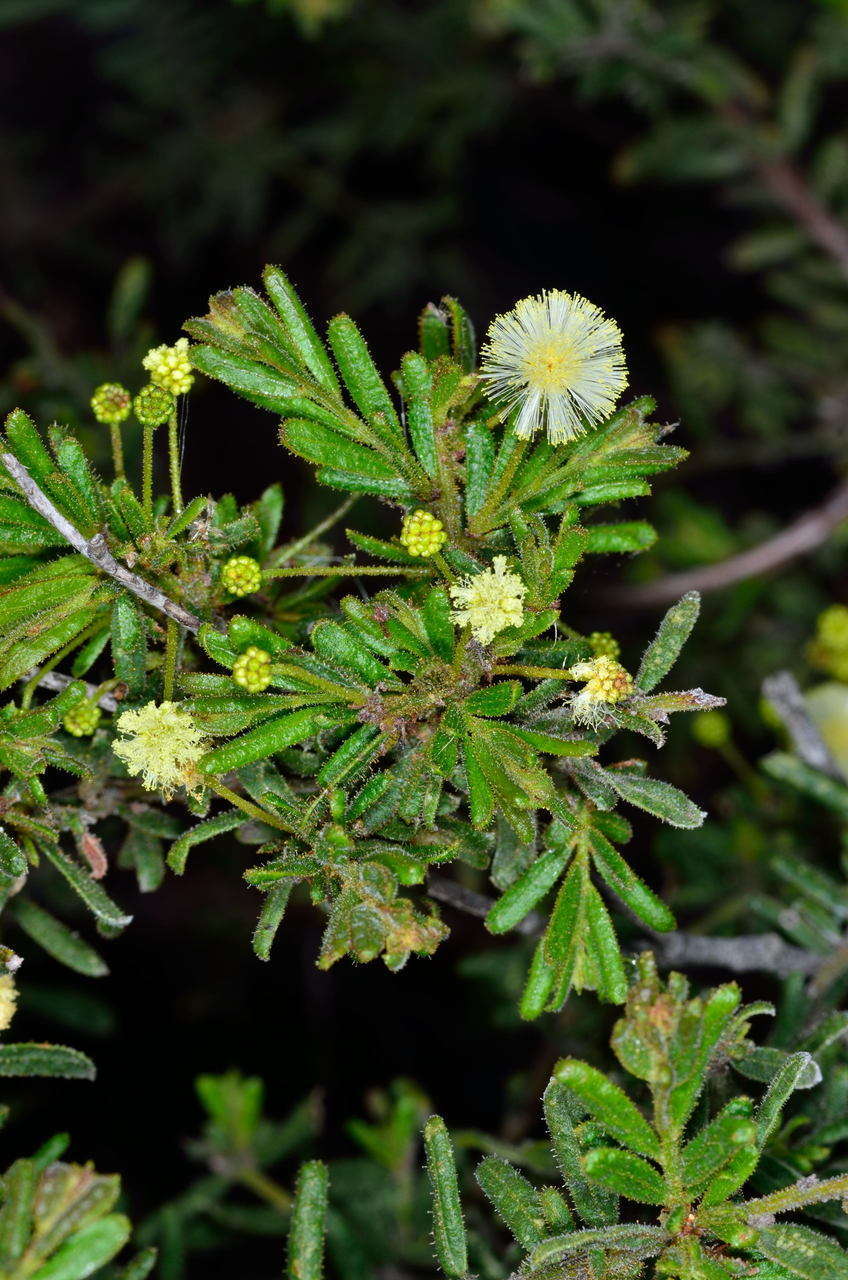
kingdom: Plantae
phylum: Tracheophyta
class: Magnoliopsida
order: Fabales
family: Fabaceae
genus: Acacia
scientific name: Acacia aspera
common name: Rough wattle
